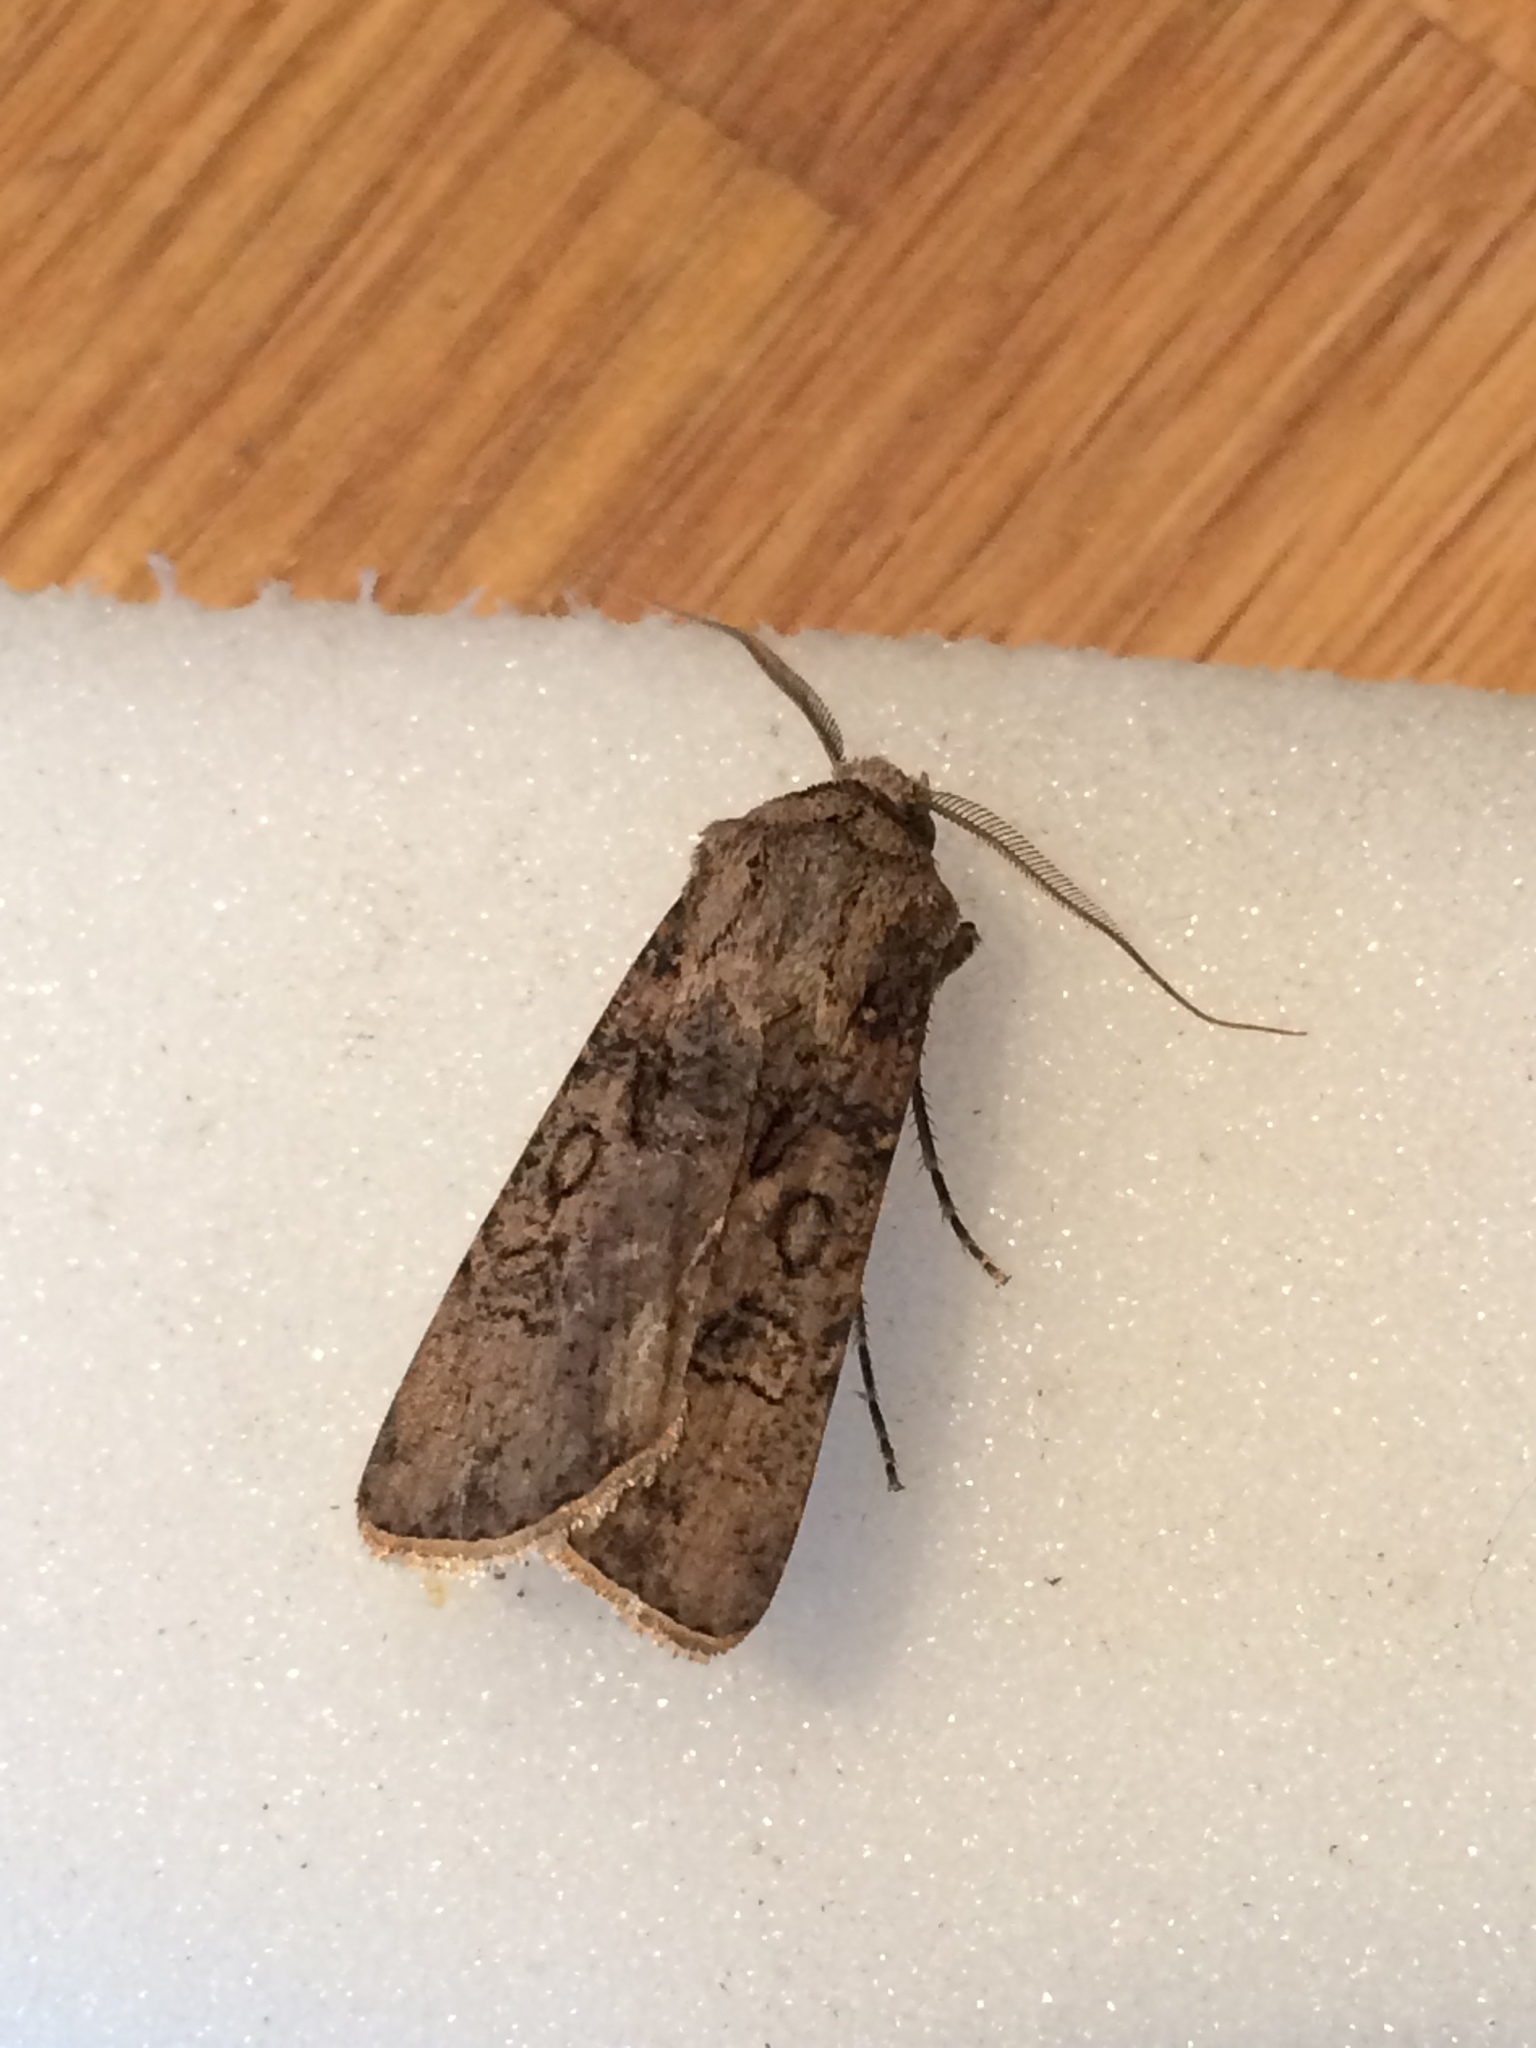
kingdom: Animalia
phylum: Arthropoda
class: Insecta
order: Lepidoptera
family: Noctuidae
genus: Agrotis
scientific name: Agrotis segetum
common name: Turnip moth
